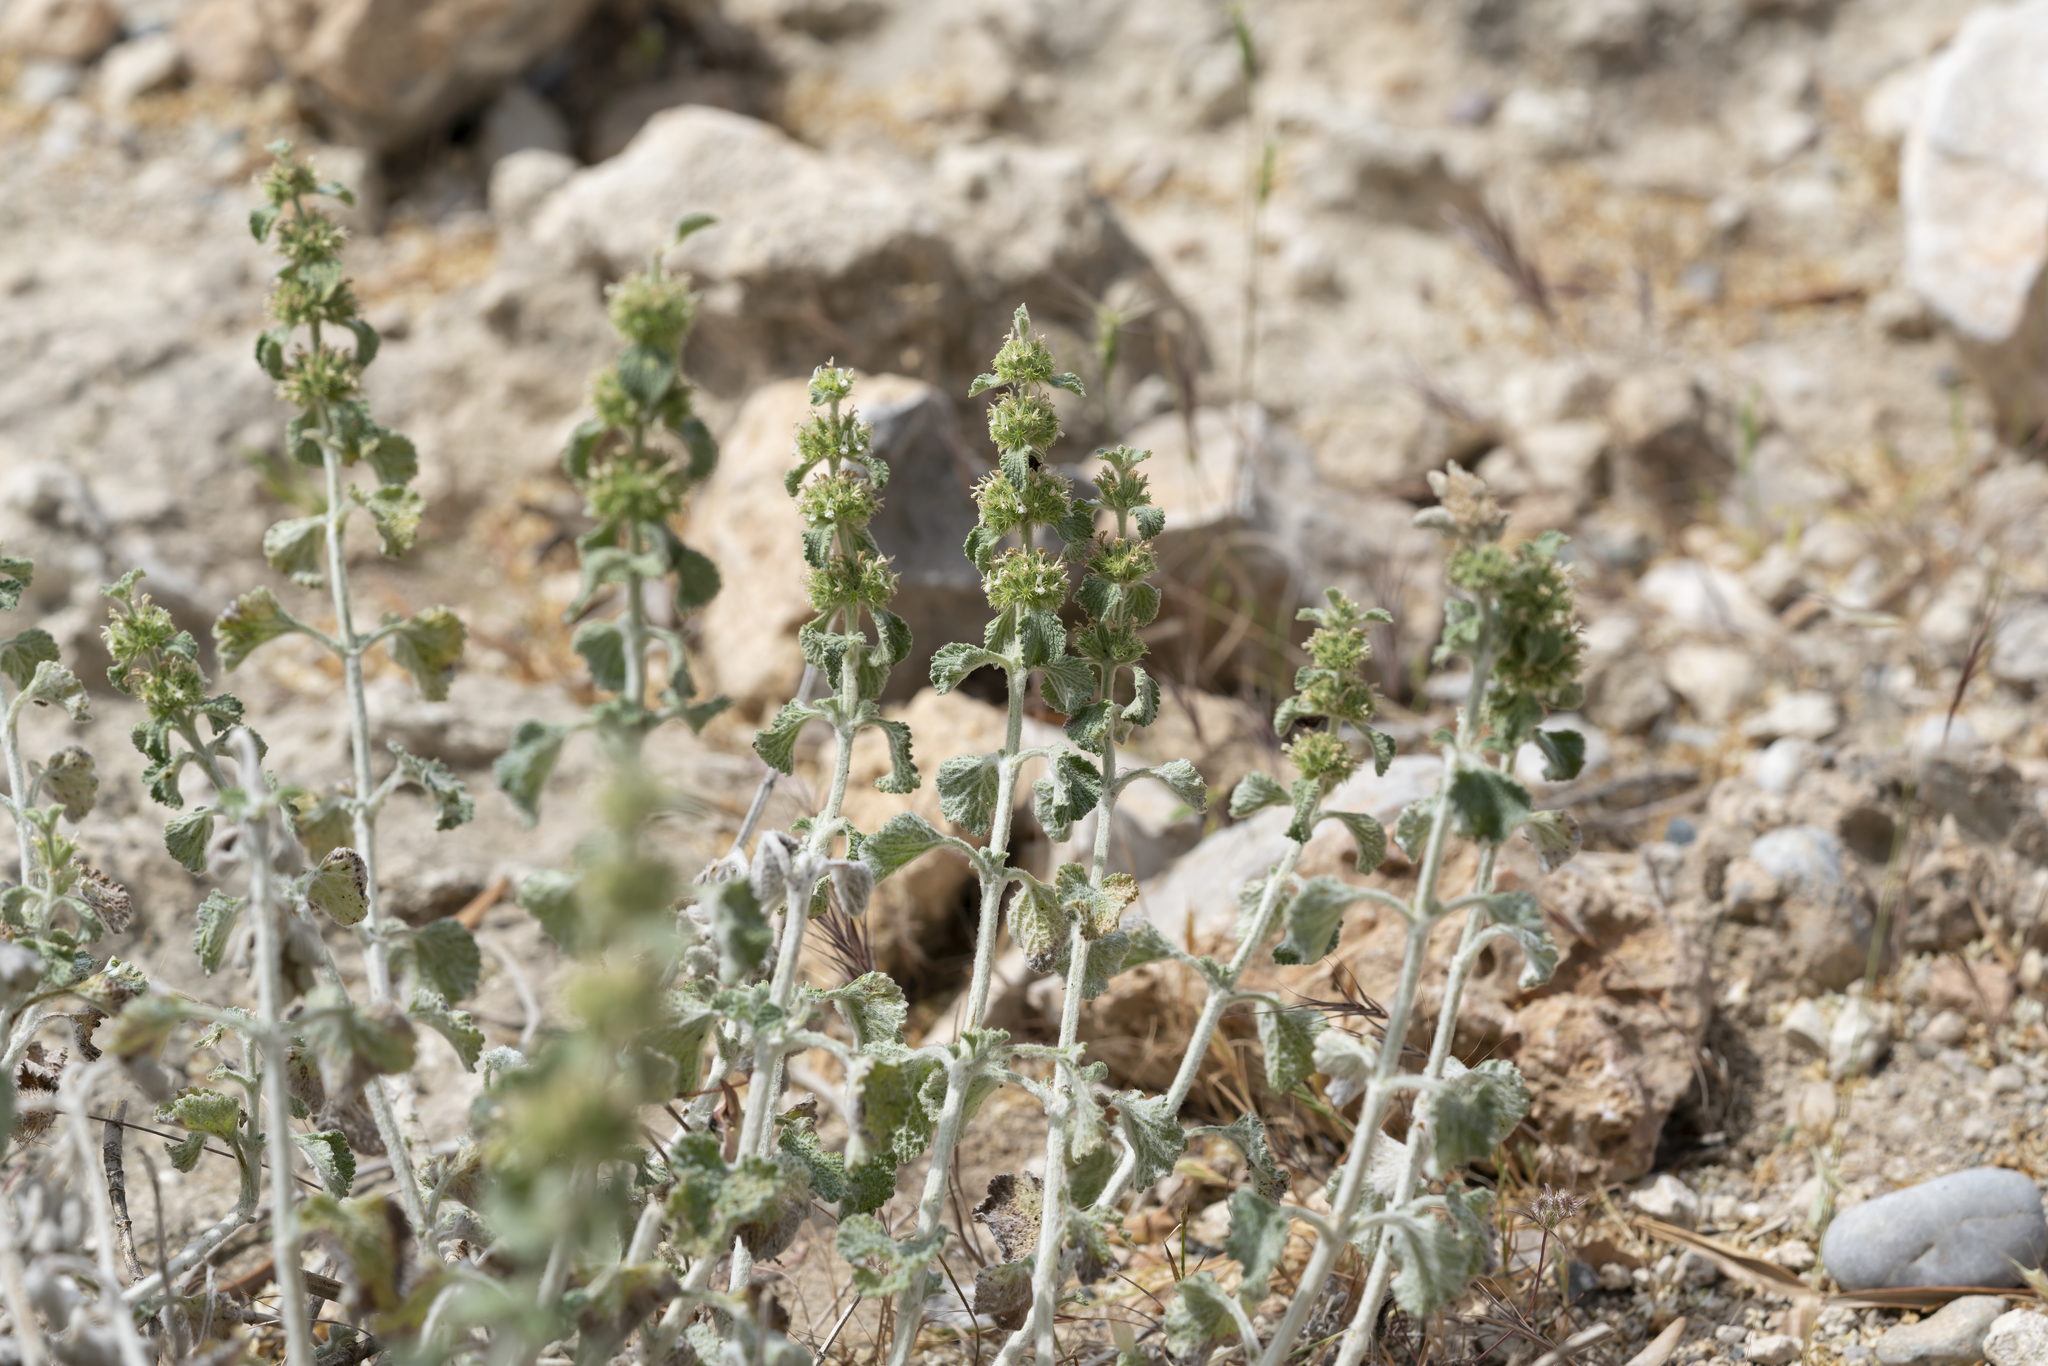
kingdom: Plantae
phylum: Tracheophyta
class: Magnoliopsida
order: Lamiales
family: Lamiaceae
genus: Marrubium
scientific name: Marrubium vulgare
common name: Horehound
